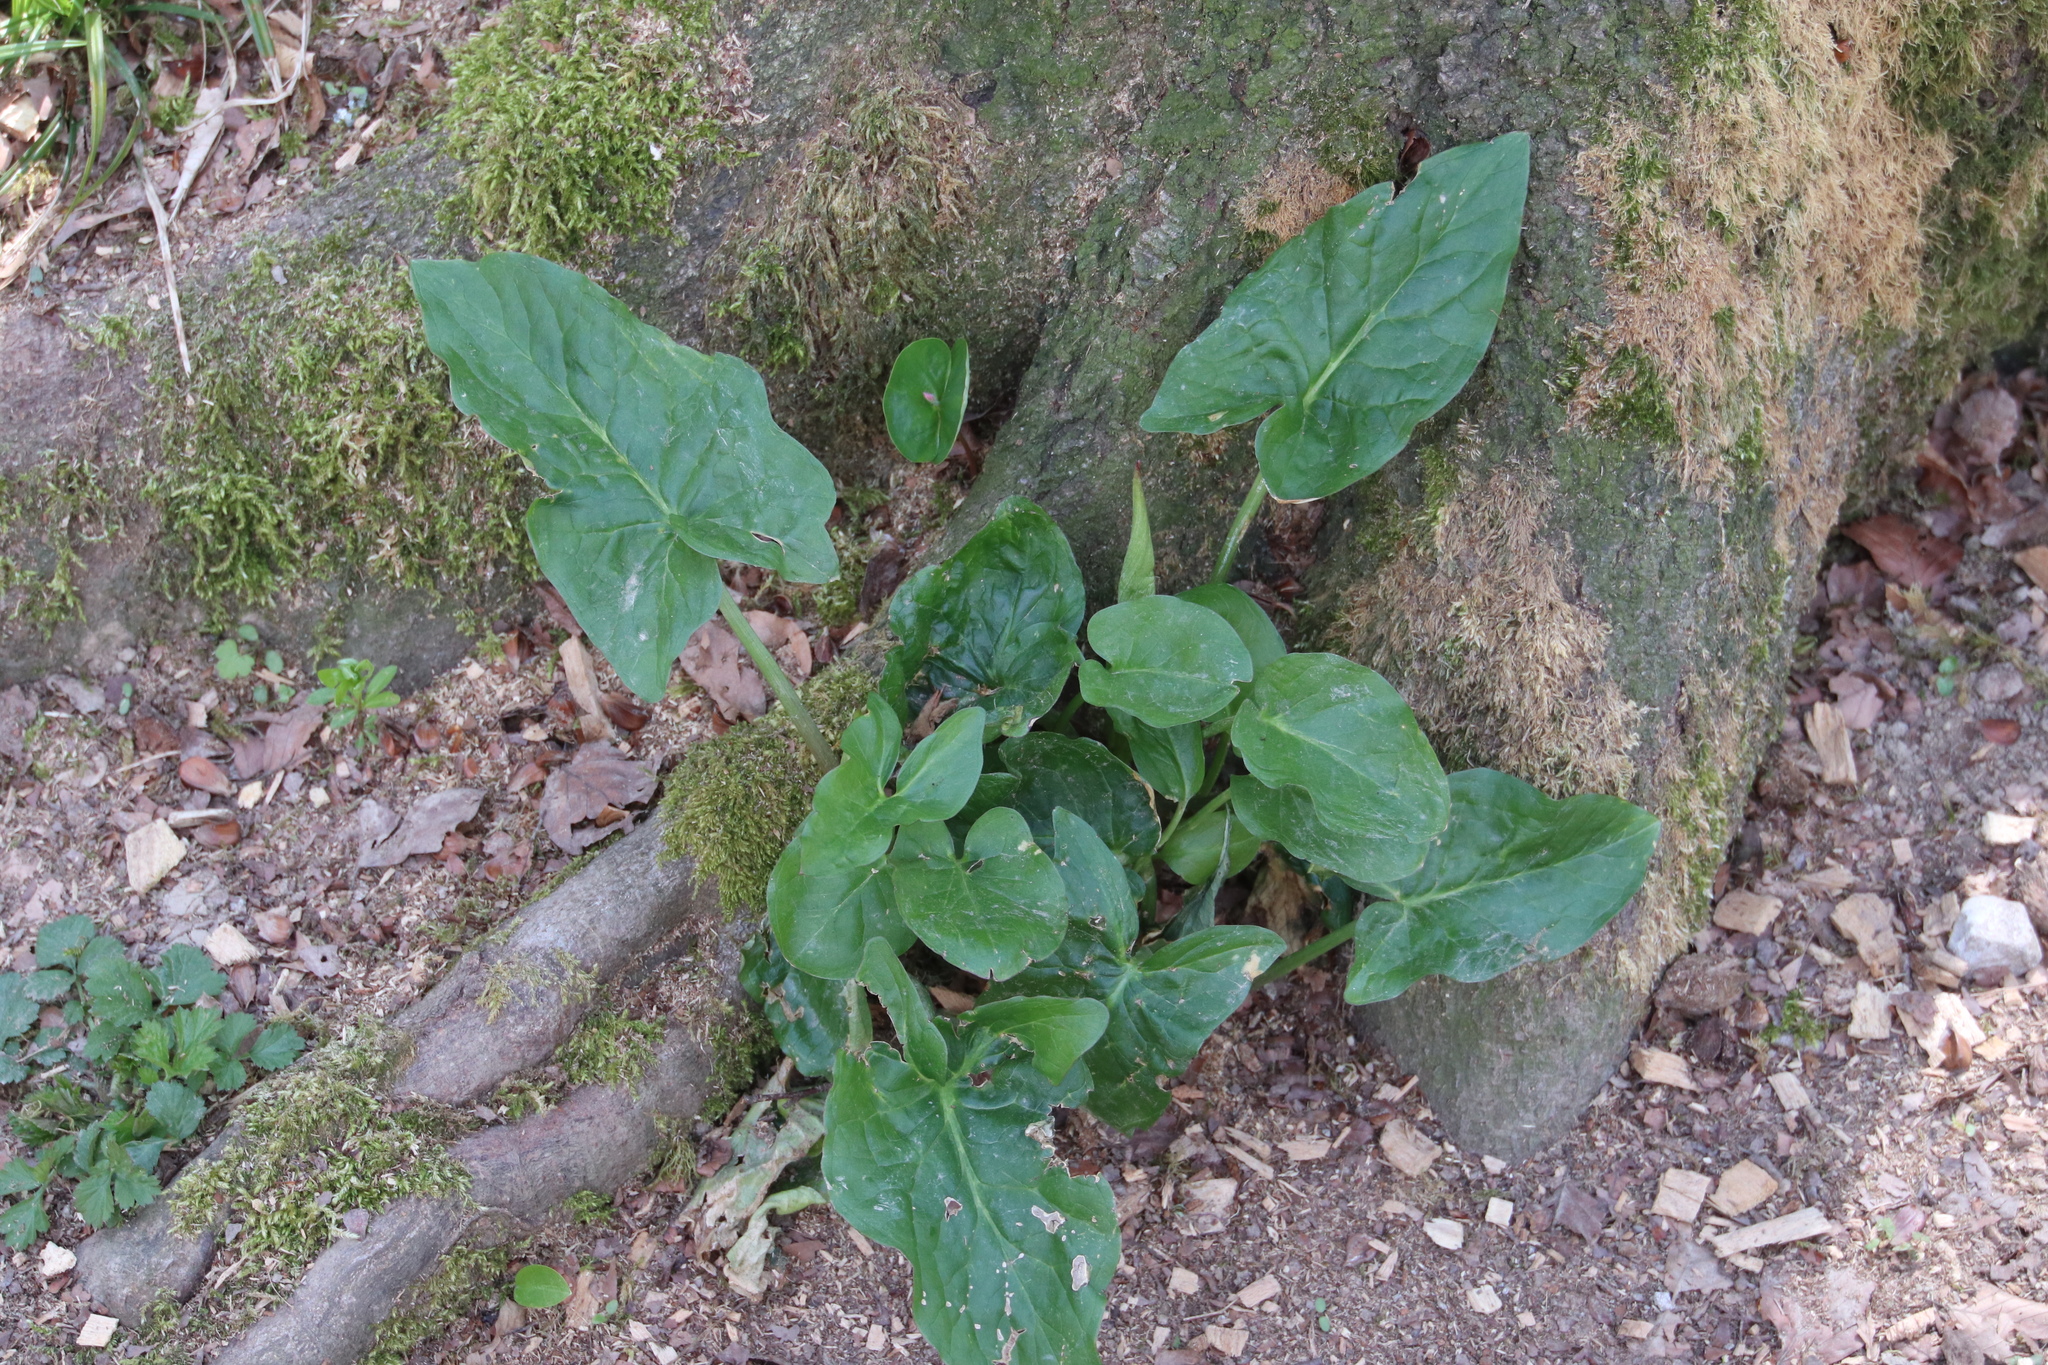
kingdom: Plantae
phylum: Tracheophyta
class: Liliopsida
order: Alismatales
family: Araceae
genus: Arum
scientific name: Arum maculatum
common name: Lords-and-ladies
